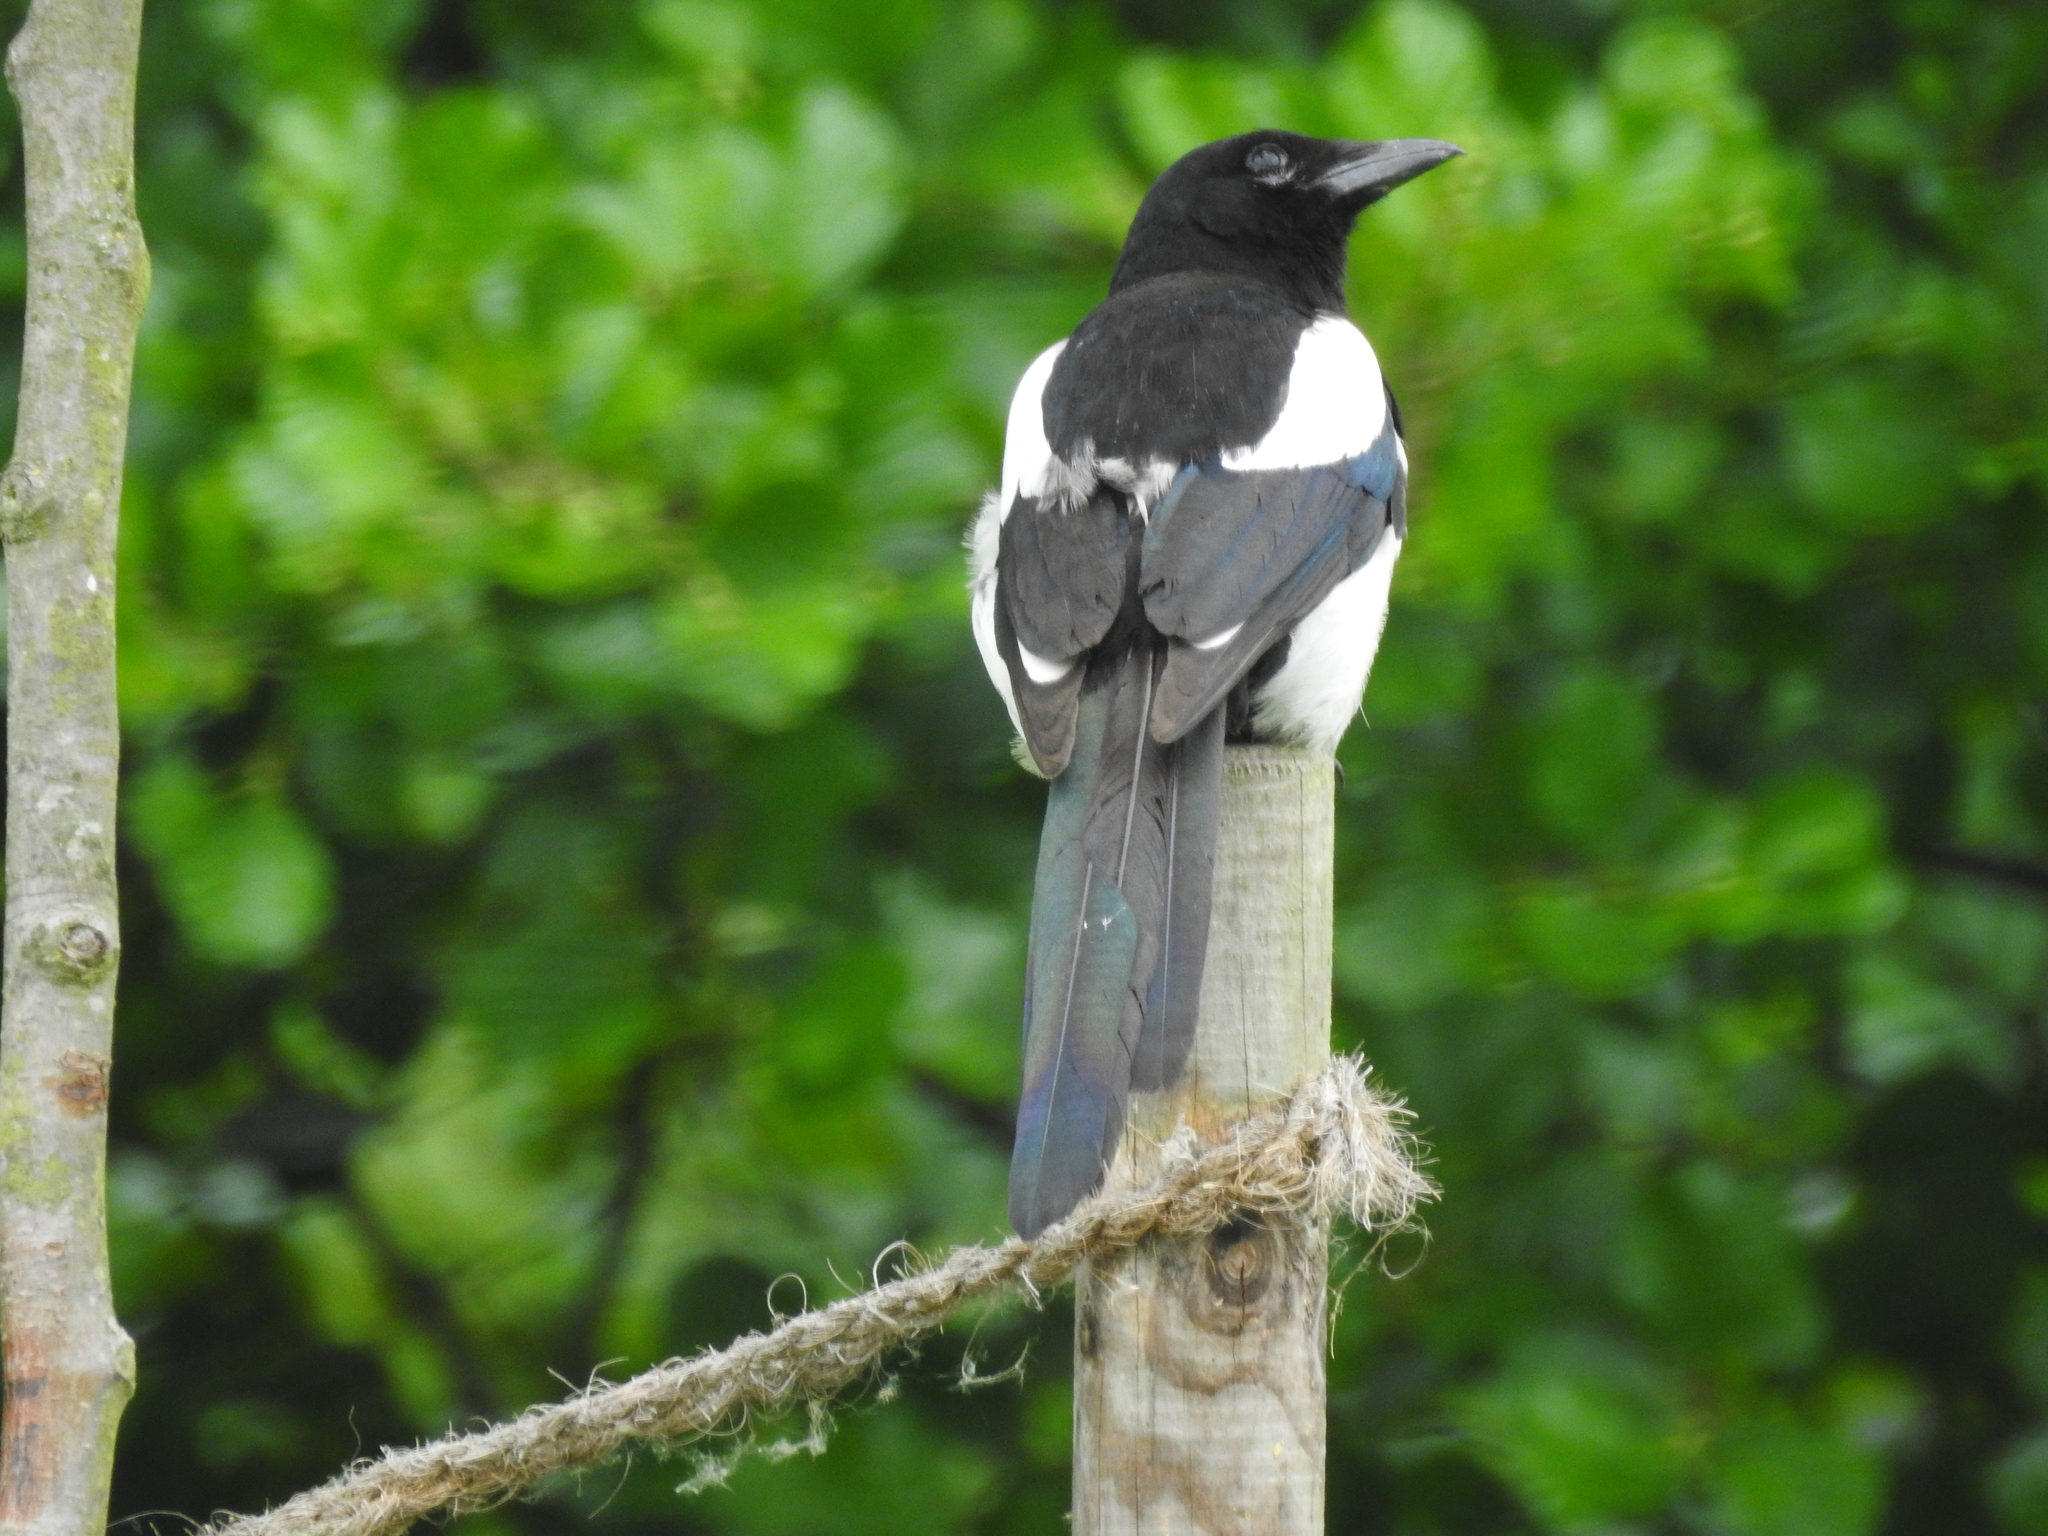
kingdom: Animalia
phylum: Chordata
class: Aves
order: Passeriformes
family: Corvidae
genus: Pica
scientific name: Pica pica
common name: Eurasian magpie
